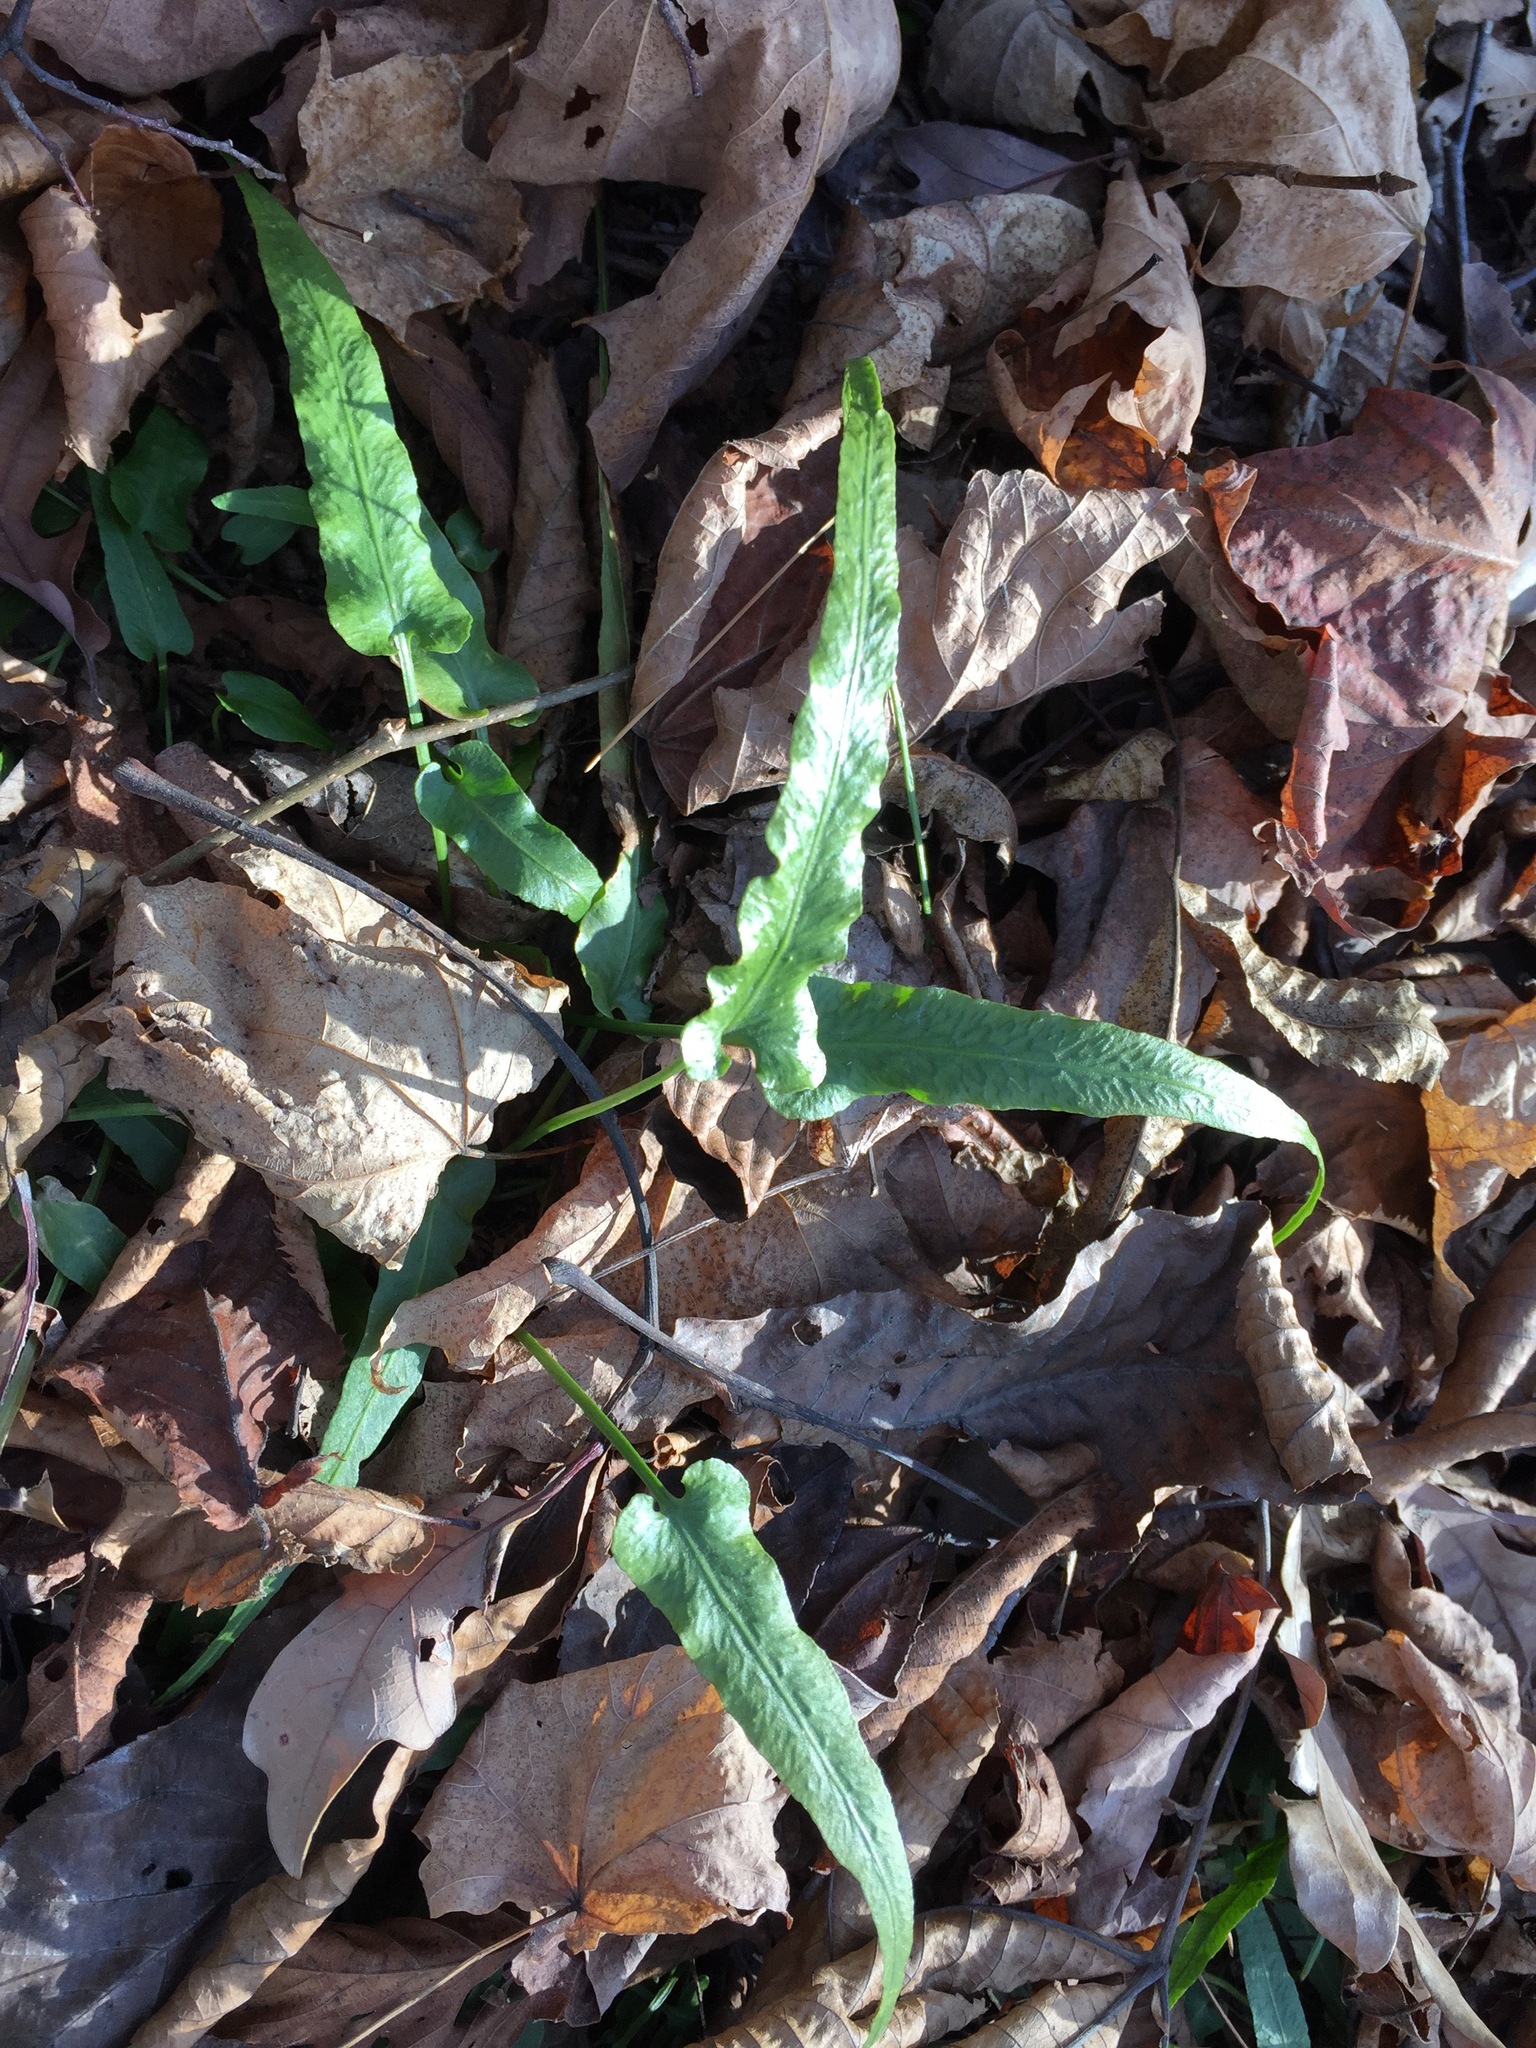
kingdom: Plantae
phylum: Tracheophyta
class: Polypodiopsida
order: Polypodiales
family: Aspleniaceae
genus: Asplenium
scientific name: Asplenium rhizophyllum
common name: Walking fern
